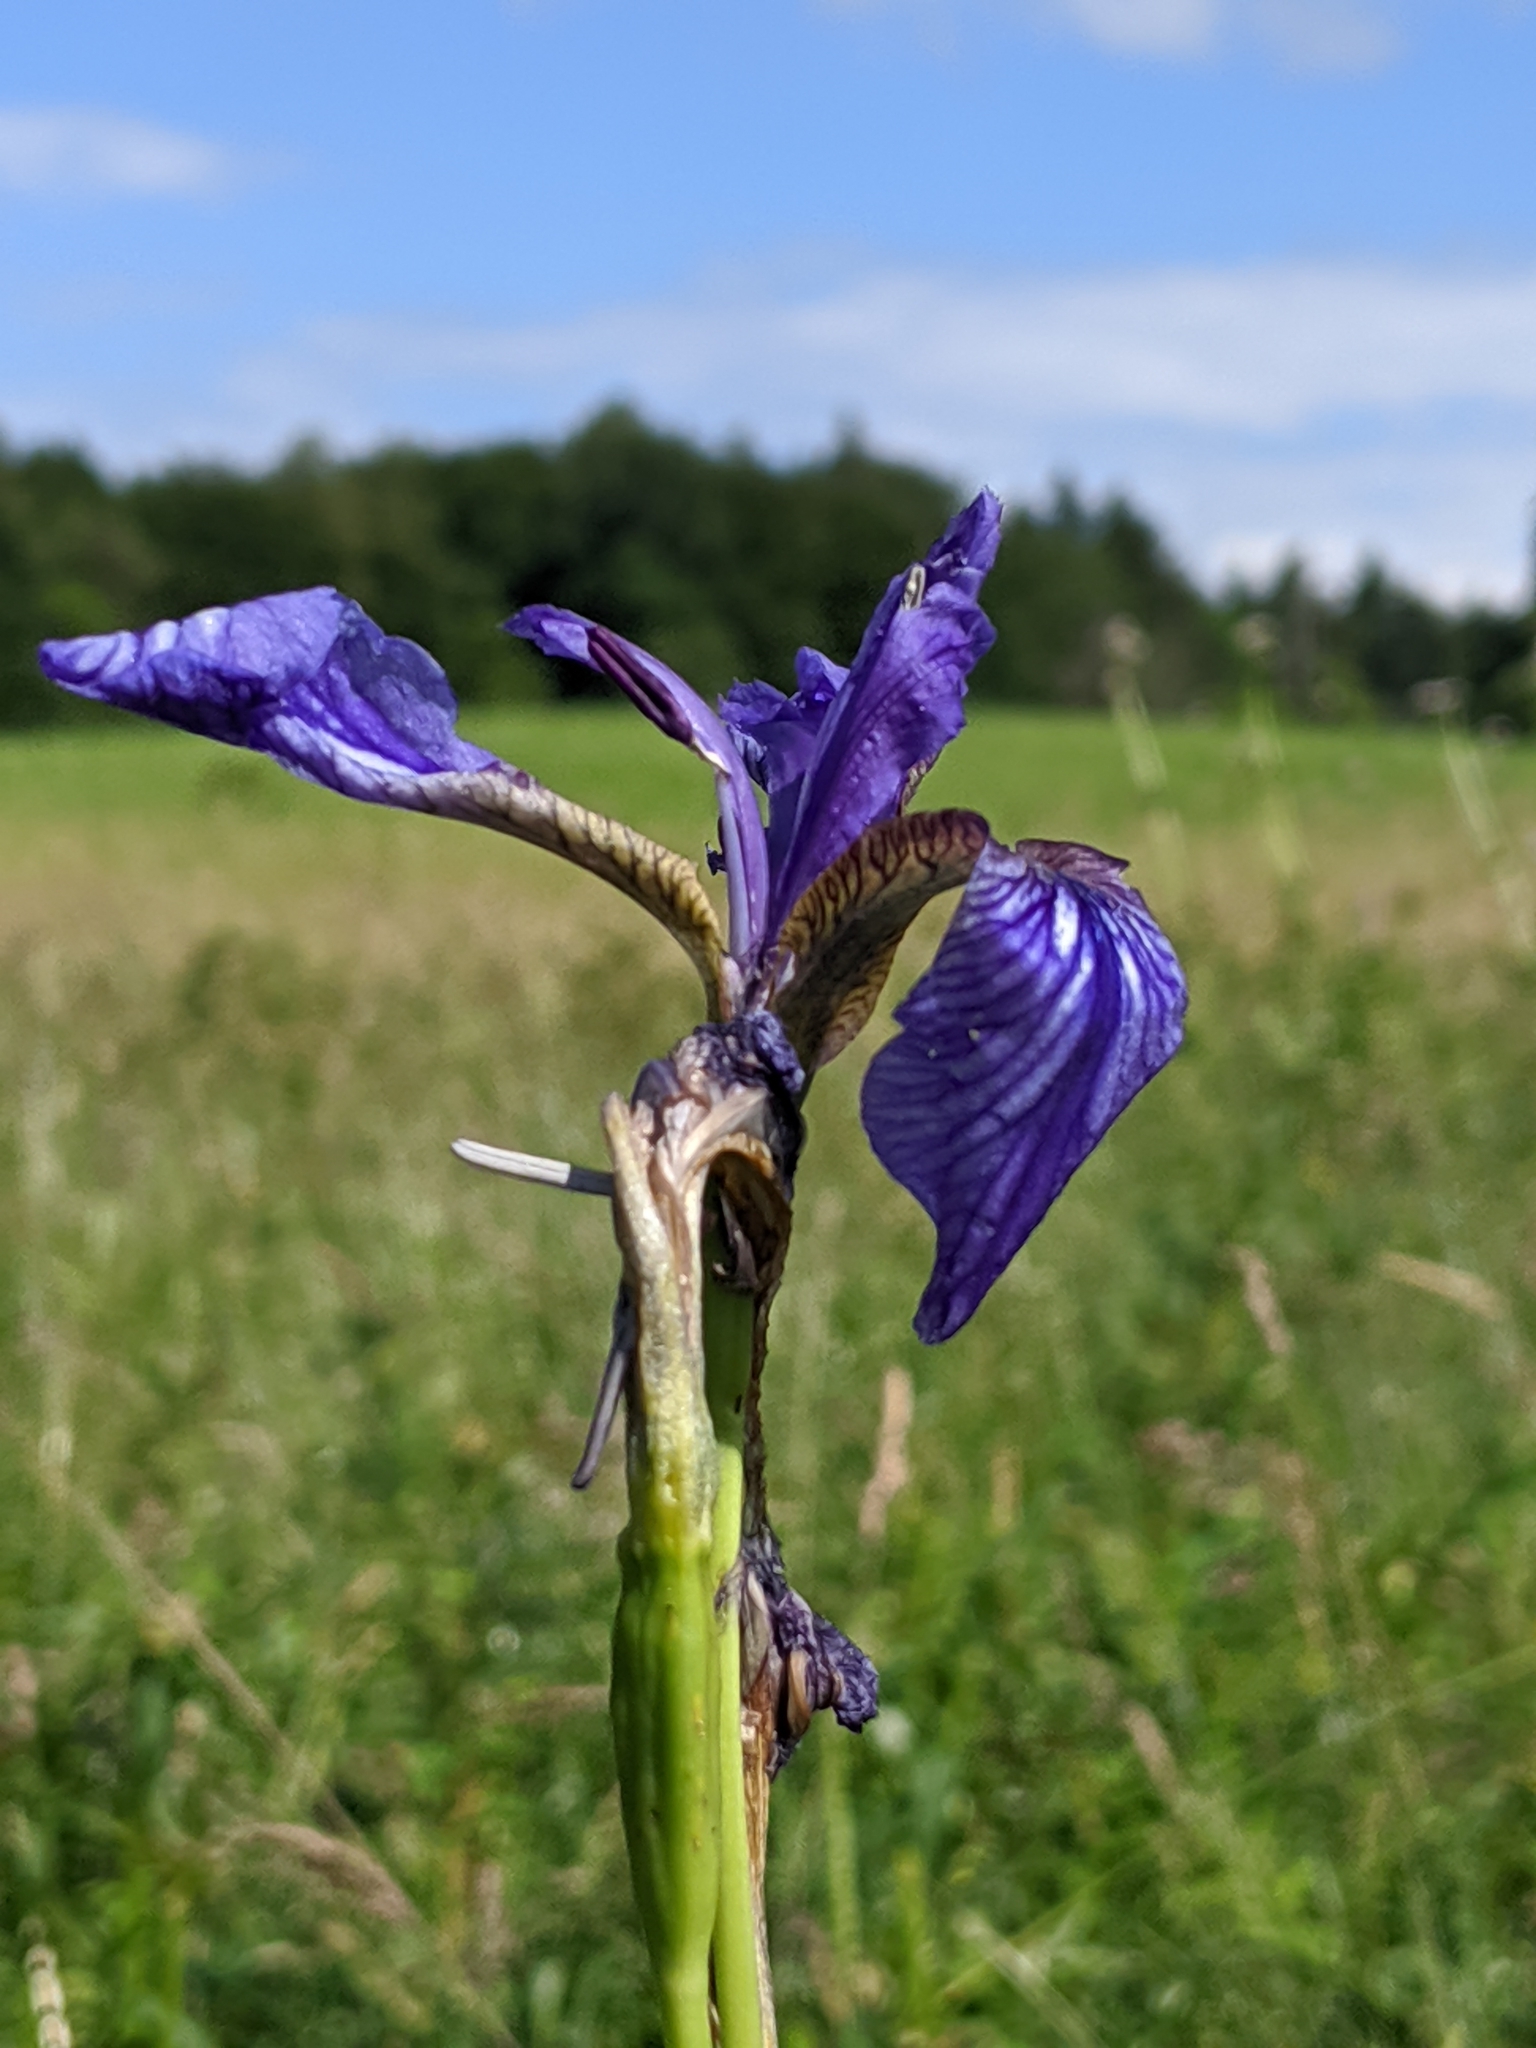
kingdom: Plantae
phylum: Tracheophyta
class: Liliopsida
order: Asparagales
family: Iridaceae
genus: Iris
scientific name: Iris sibirica
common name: Siberian iris
